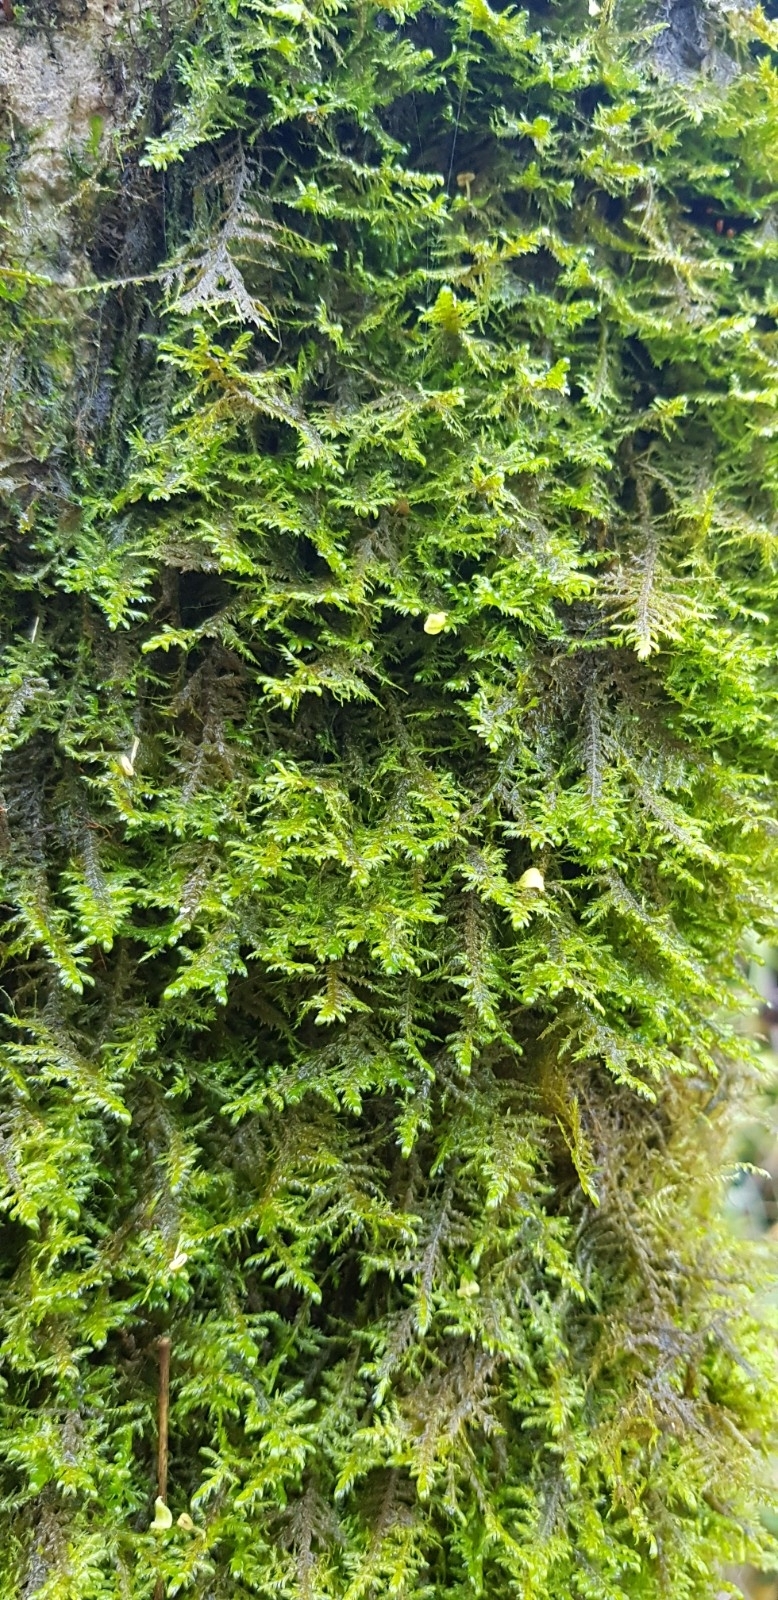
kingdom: Plantae
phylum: Bryophyta
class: Bryopsida
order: Hypnales
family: Neckeraceae
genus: Alleniella
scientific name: Alleniella complanata
